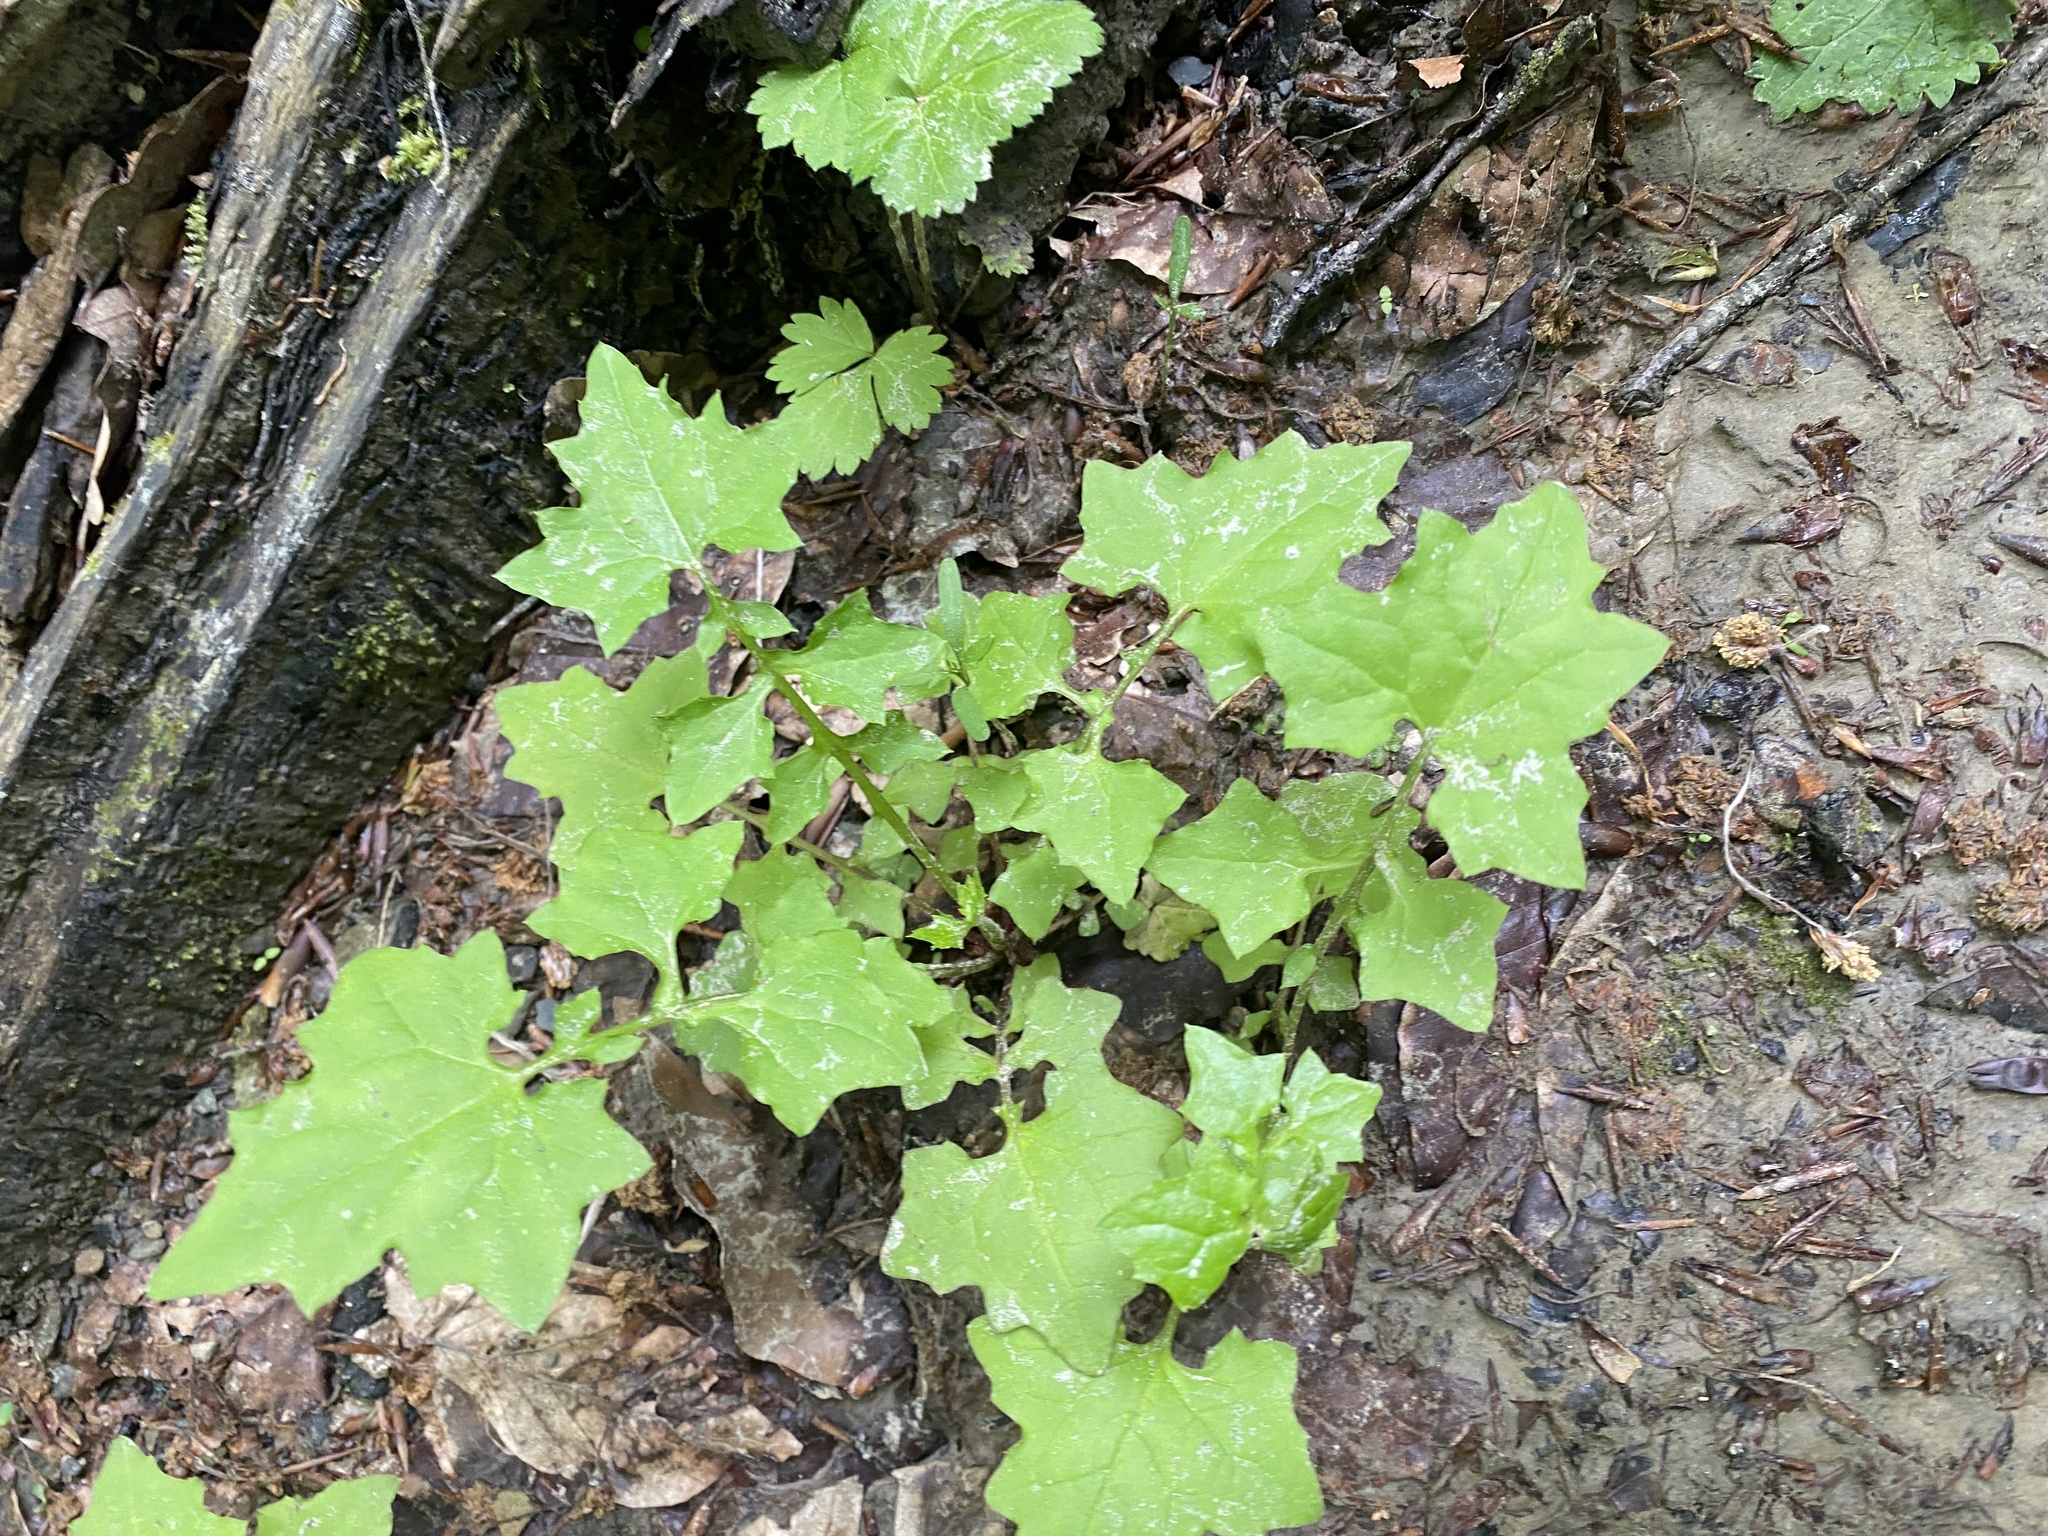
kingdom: Plantae
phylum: Tracheophyta
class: Magnoliopsida
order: Asterales
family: Asteraceae
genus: Mycelis
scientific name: Mycelis muralis
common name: Wall lettuce
